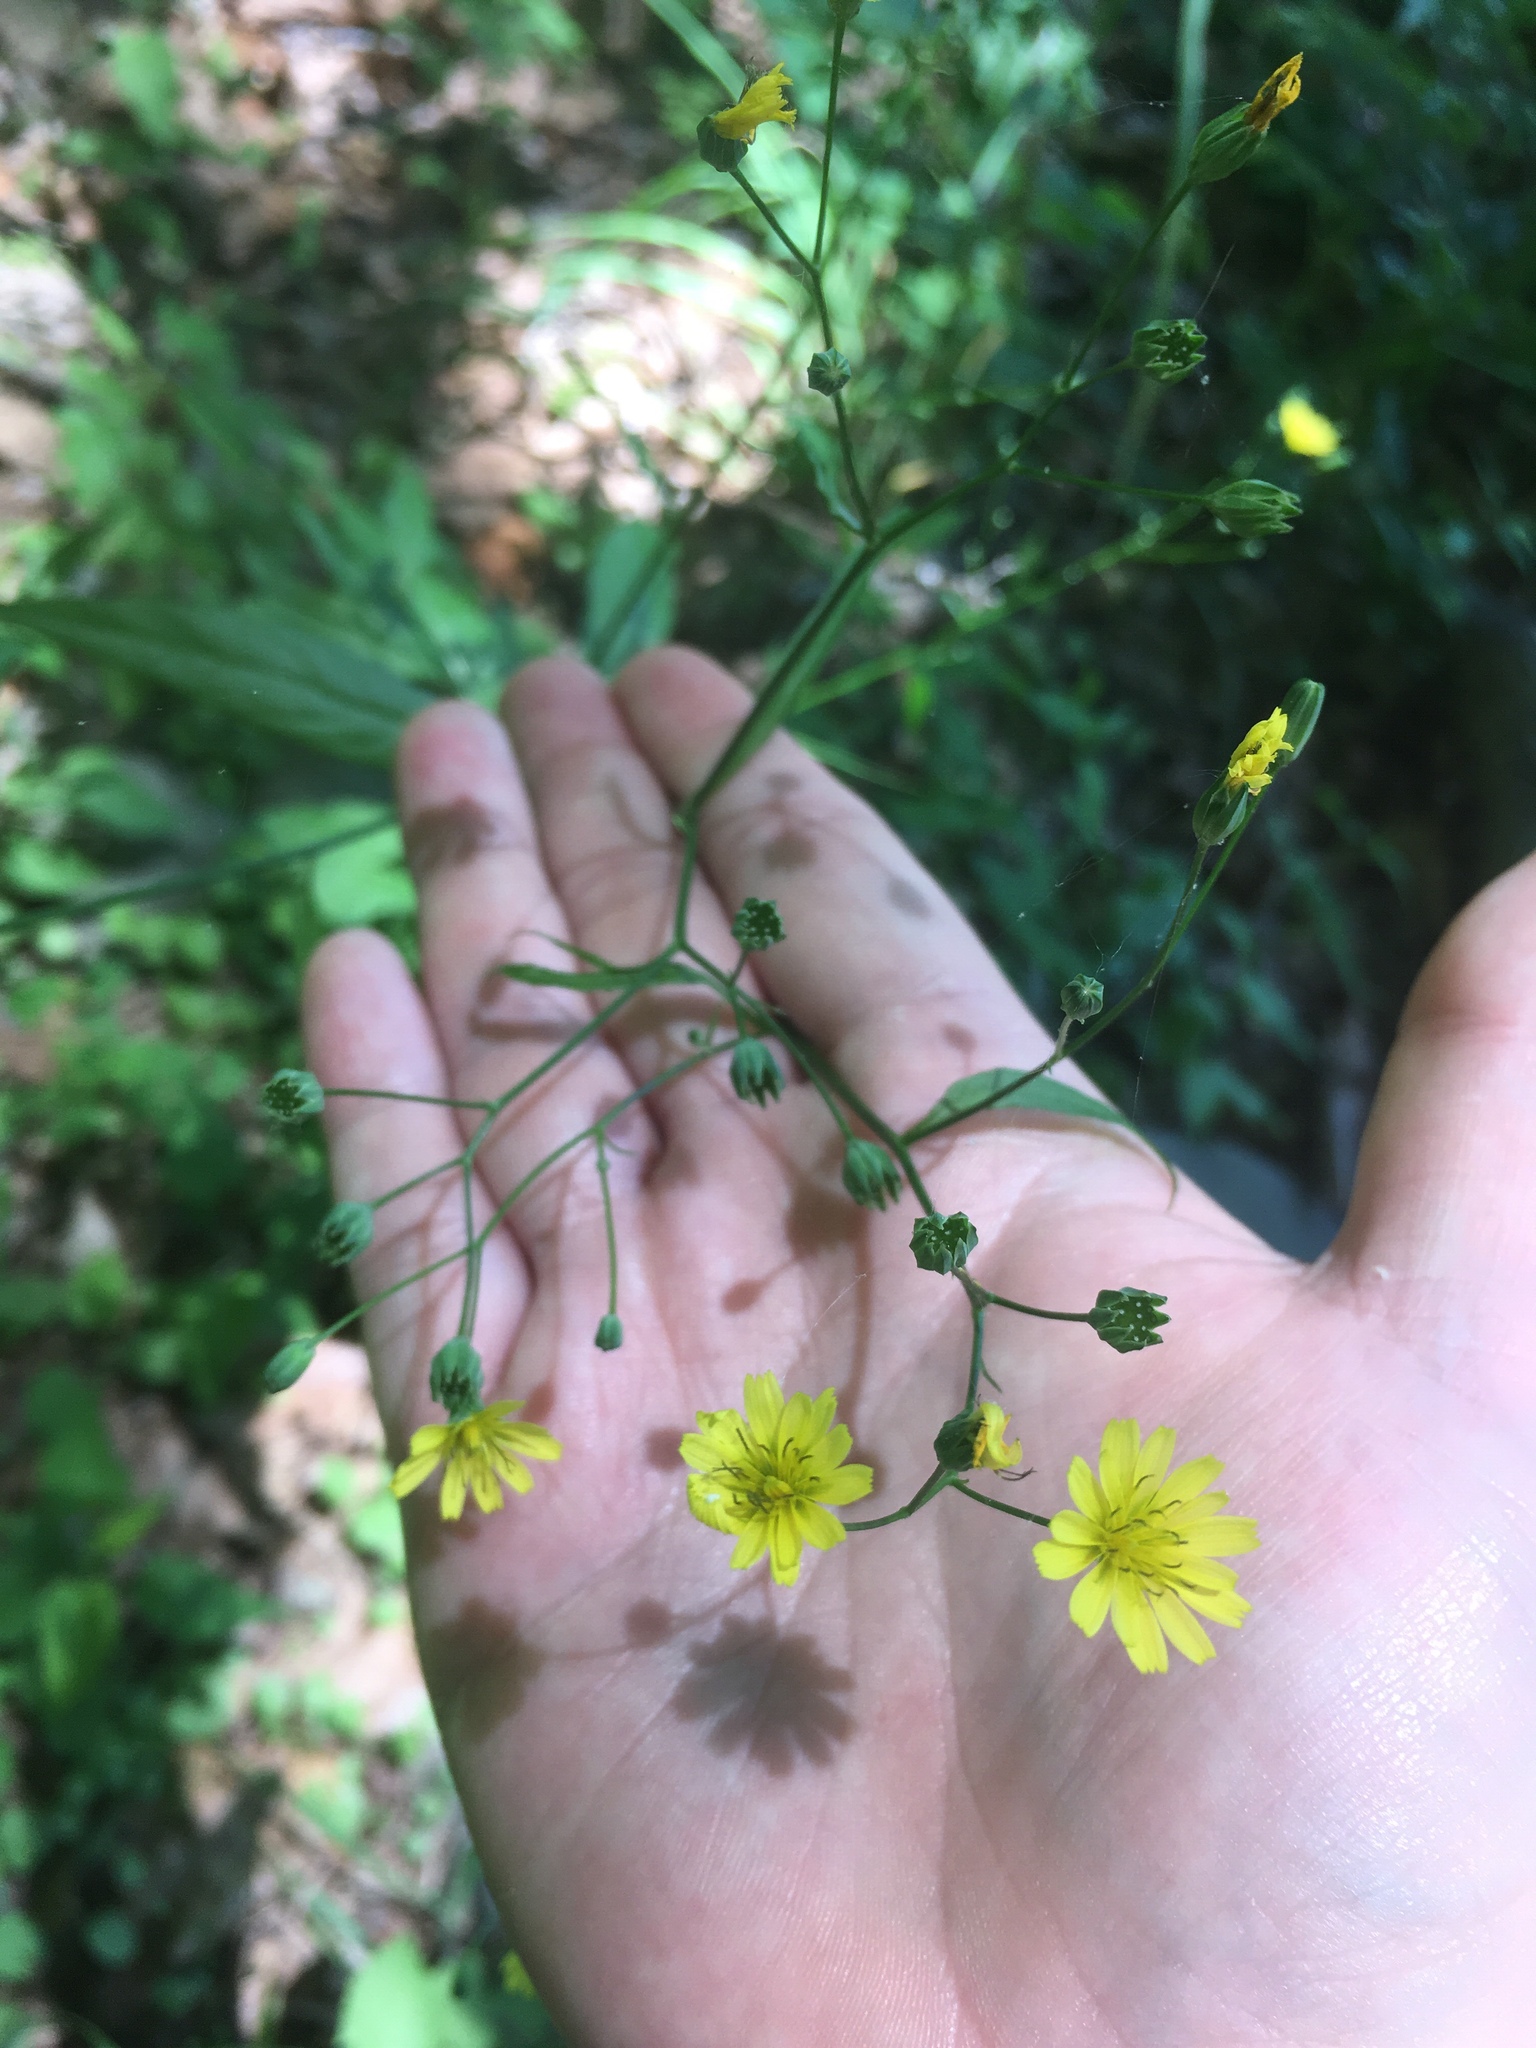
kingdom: Plantae
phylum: Tracheophyta
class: Magnoliopsida
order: Asterales
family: Asteraceae
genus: Lapsana
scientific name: Lapsana communis
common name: Nipplewort
